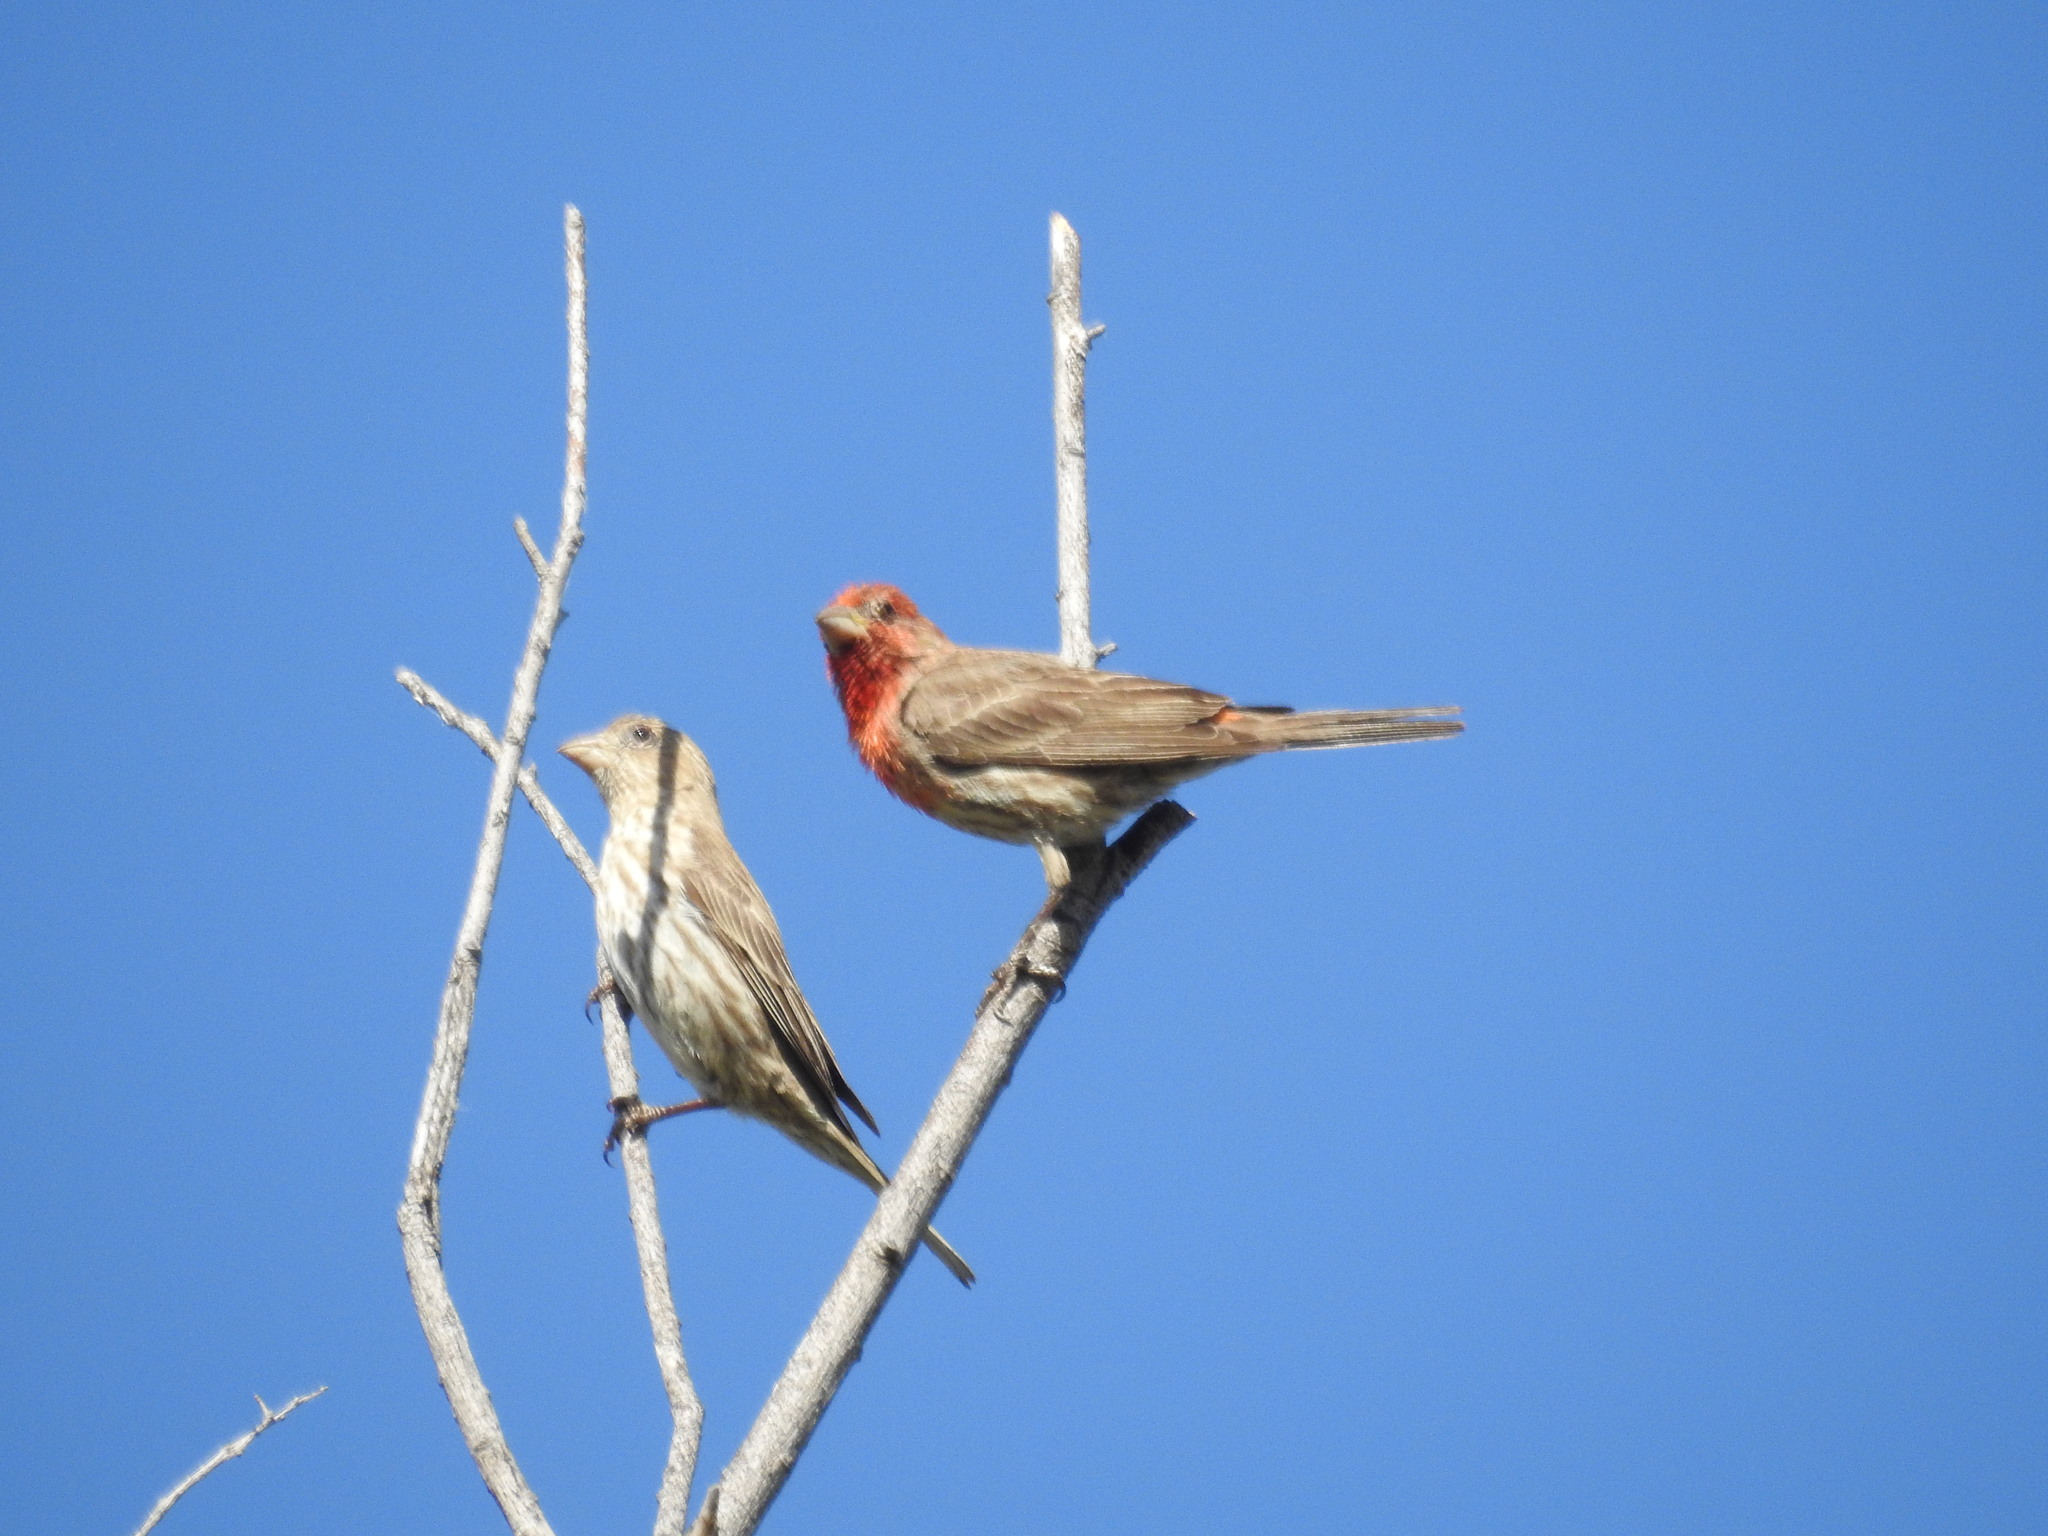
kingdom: Animalia
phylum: Chordata
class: Aves
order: Passeriformes
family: Fringillidae
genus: Haemorhous
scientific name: Haemorhous mexicanus
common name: House finch
